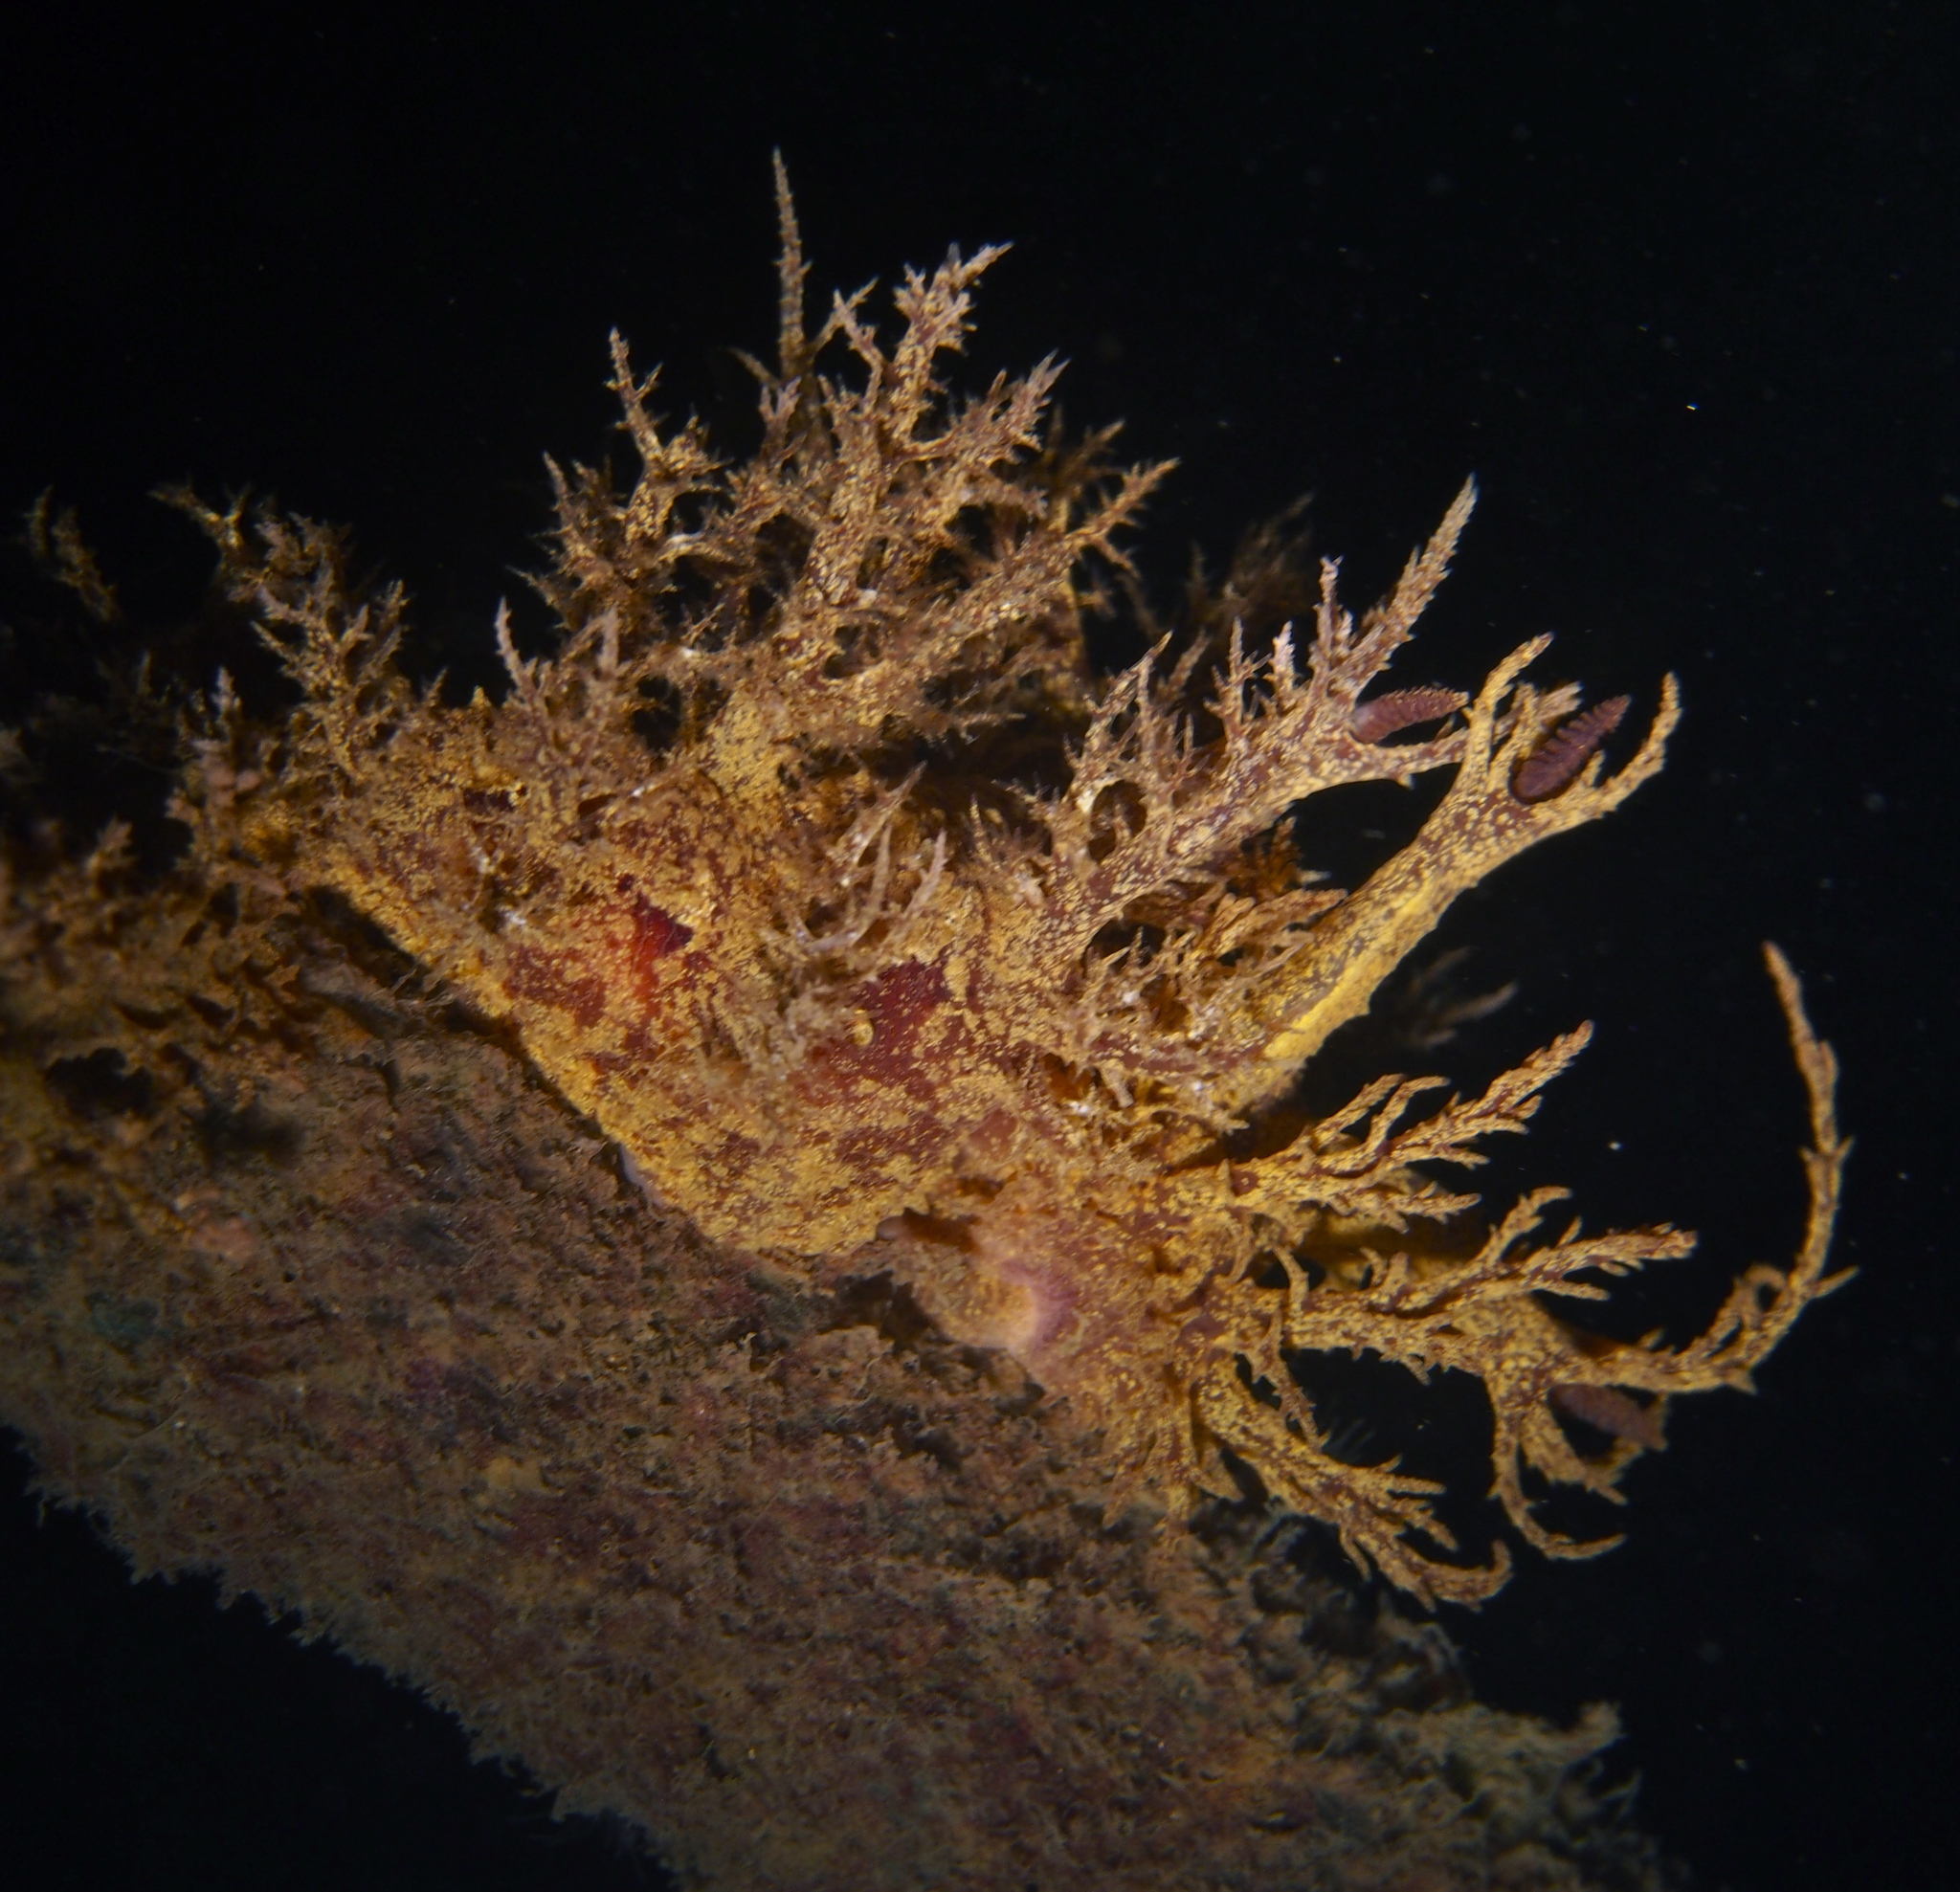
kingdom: Animalia
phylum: Mollusca
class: Gastropoda
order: Nudibranchia
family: Dendronotidae
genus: Dendronotus
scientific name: Dendronotus europaeus
